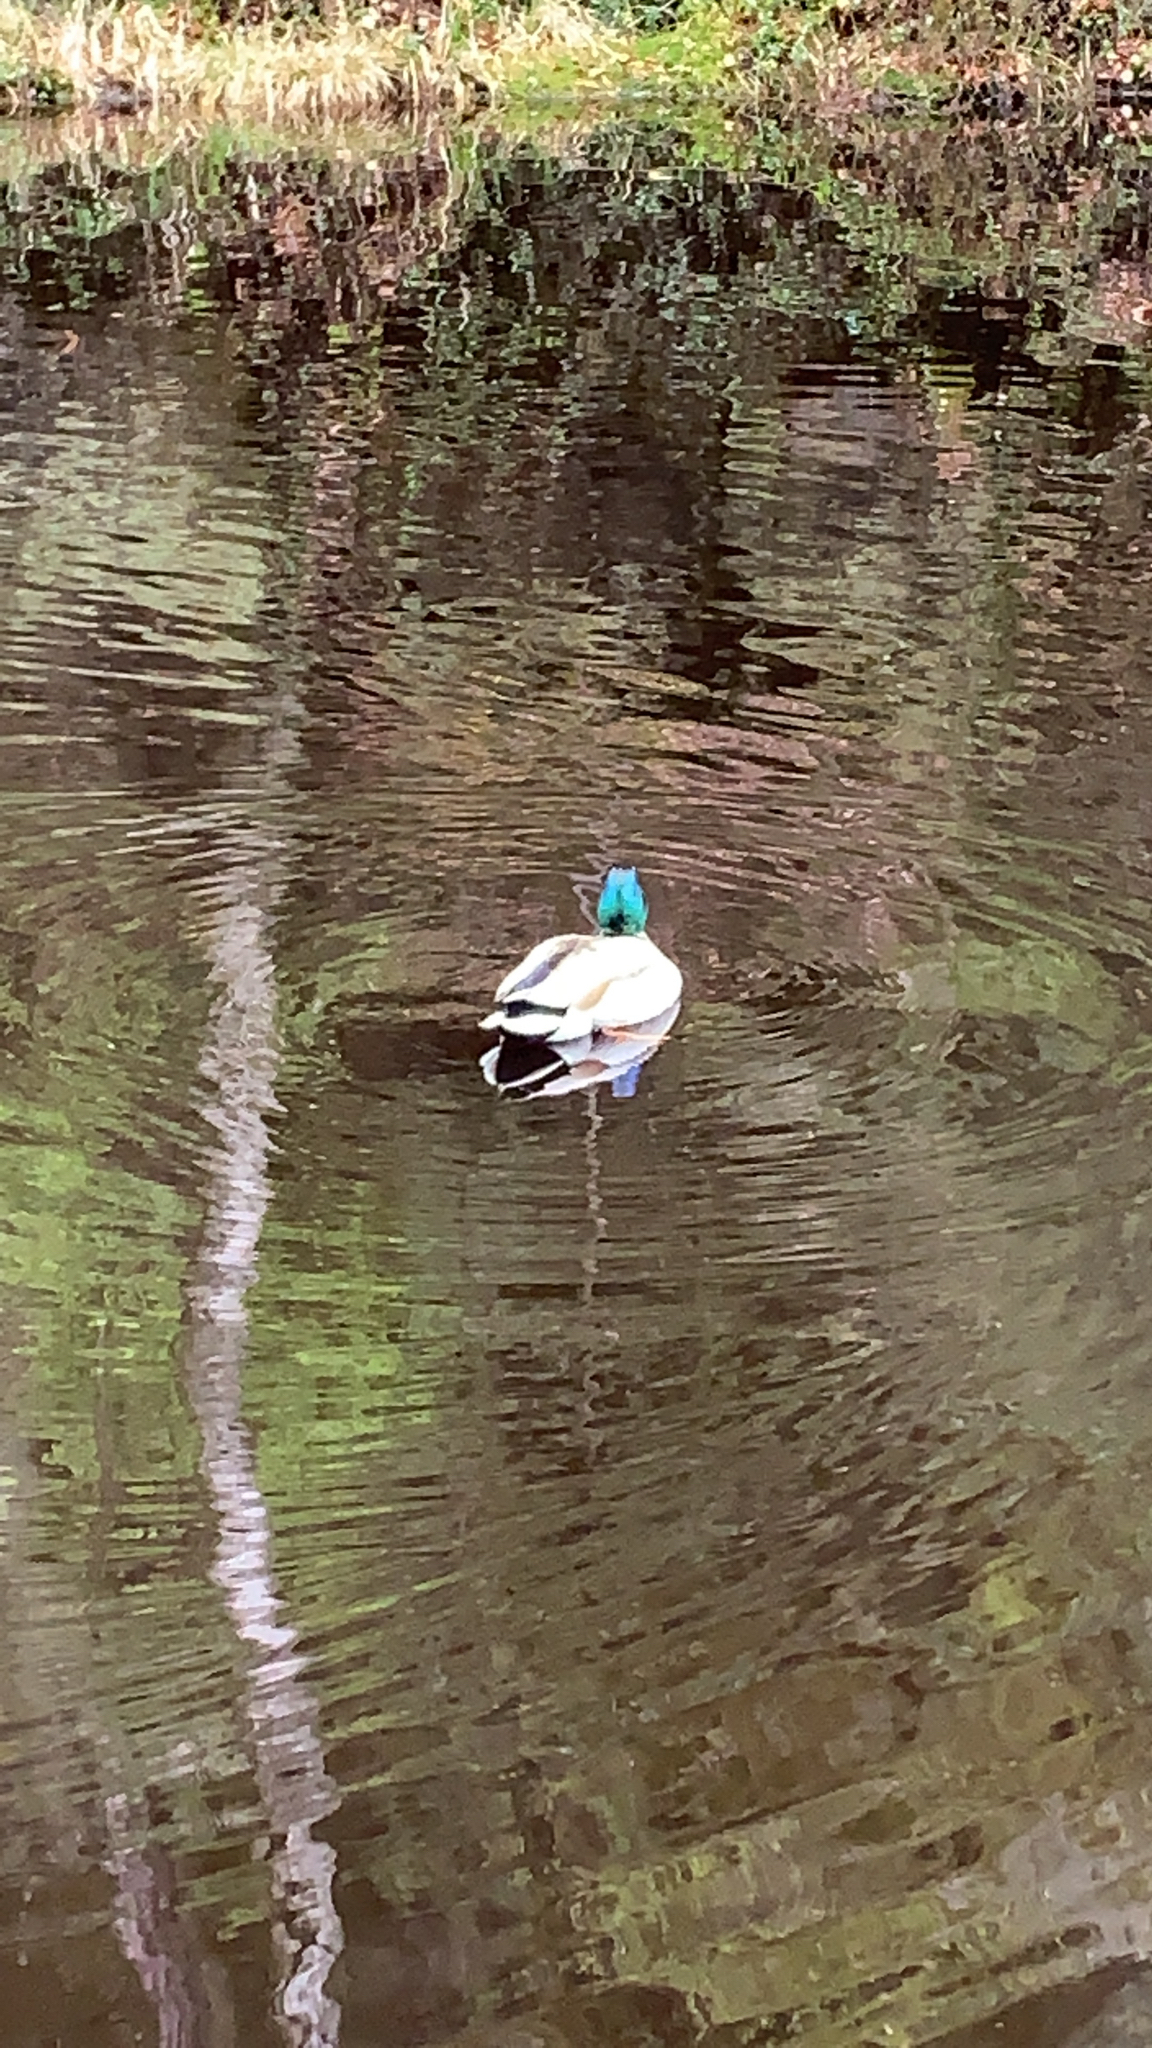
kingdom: Animalia
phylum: Chordata
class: Aves
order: Anseriformes
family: Anatidae
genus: Anas
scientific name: Anas platyrhynchos
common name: Mallard
